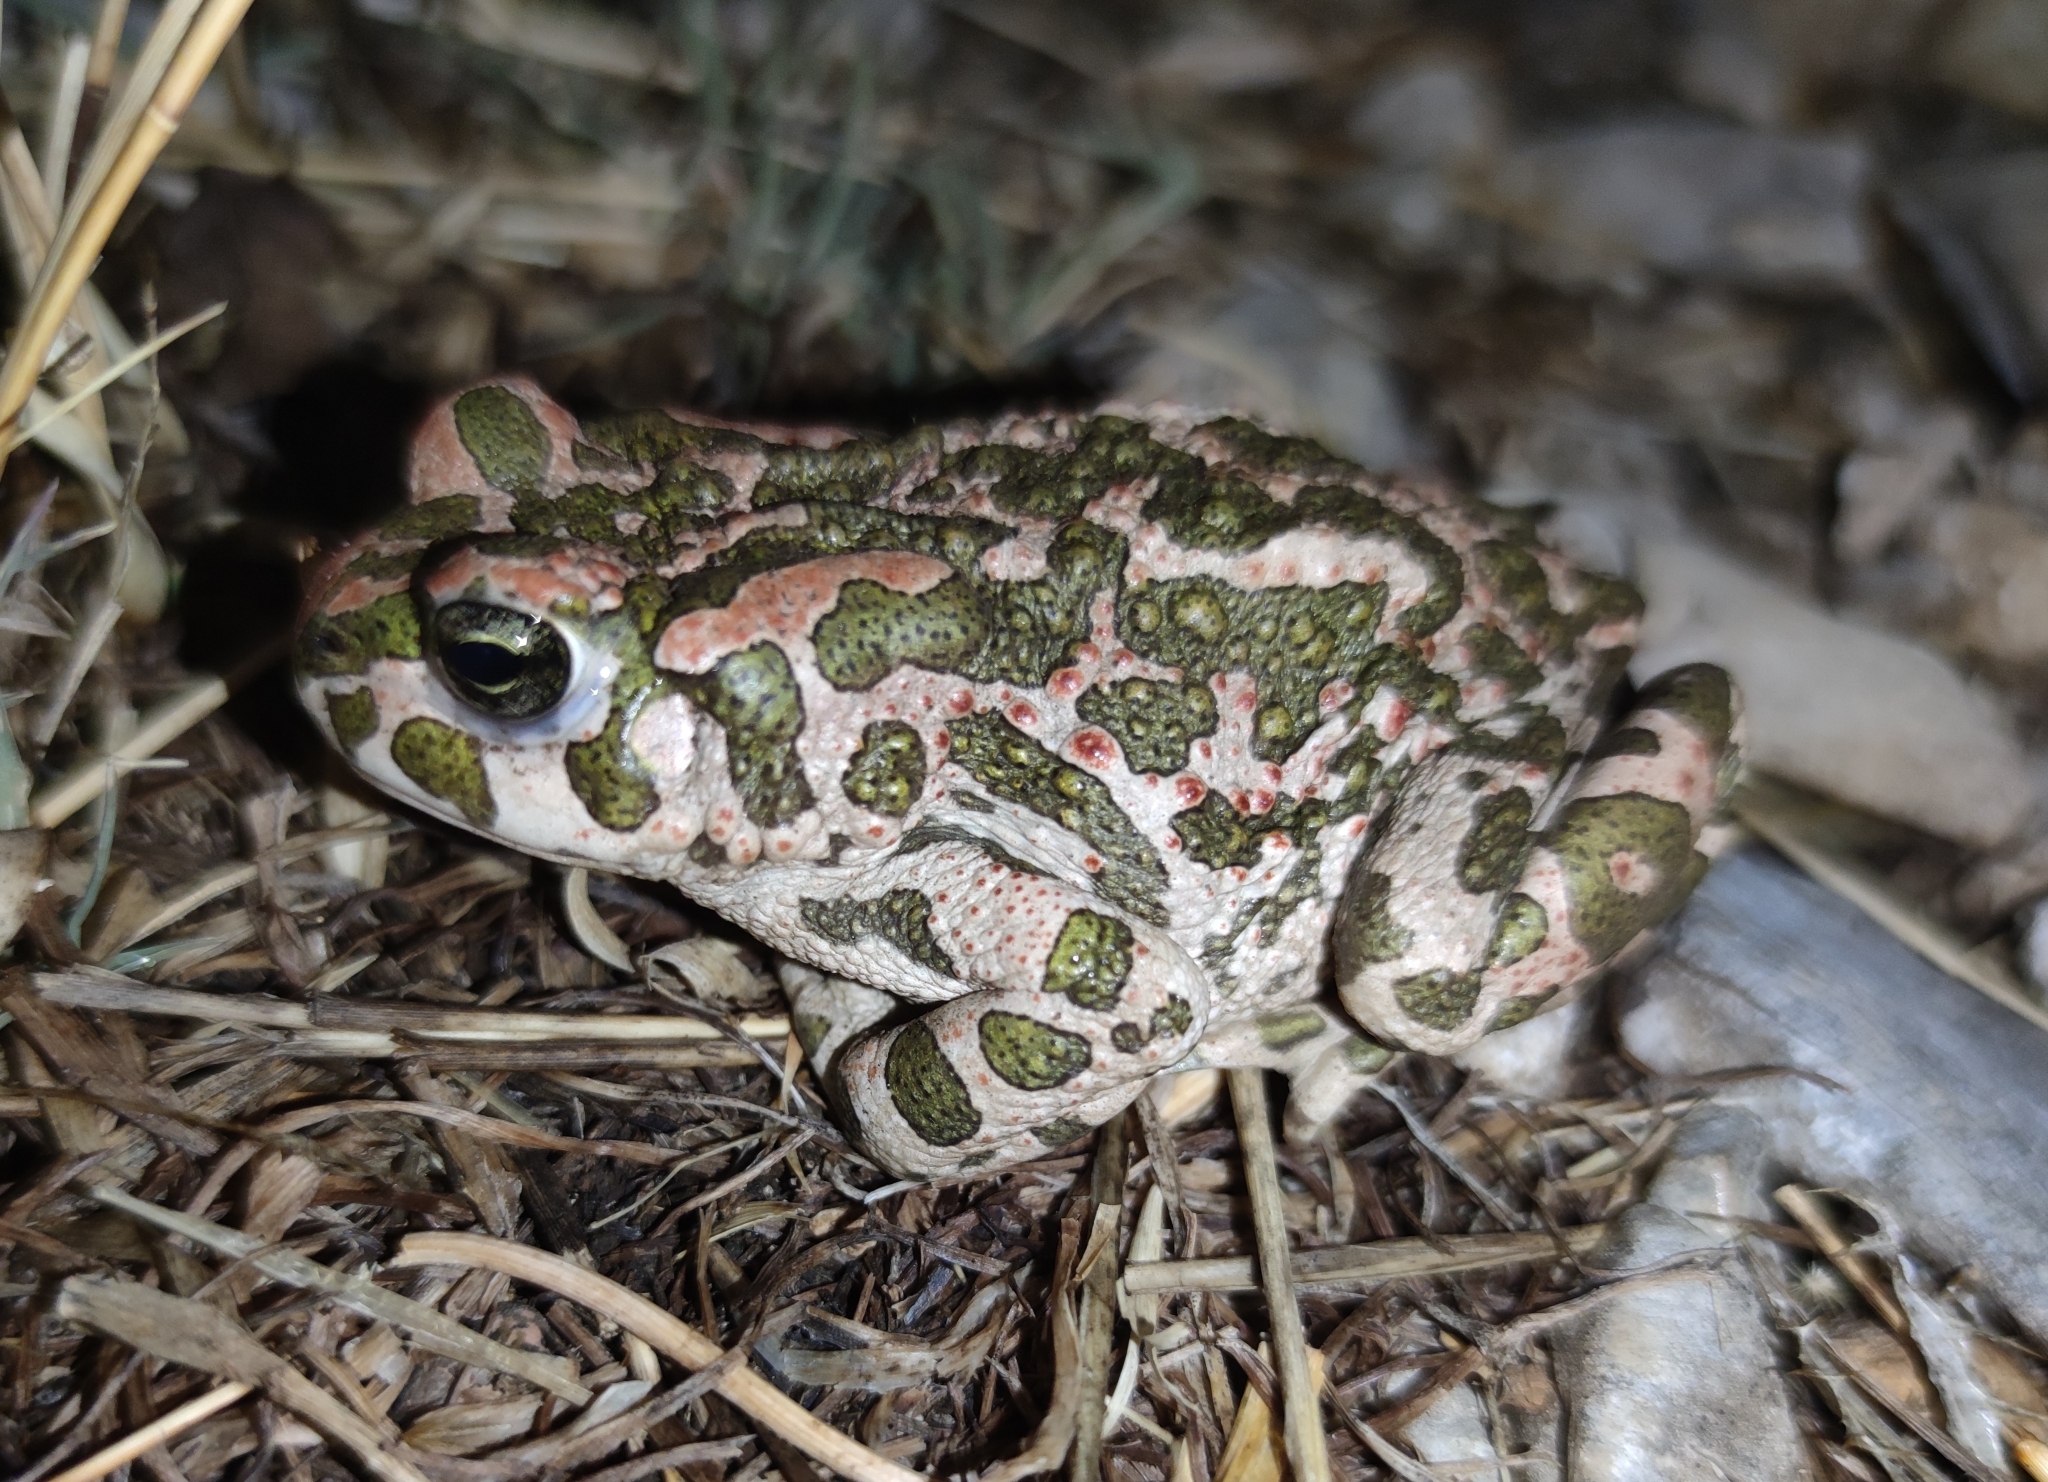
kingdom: Animalia
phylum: Chordata
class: Amphibia
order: Anura
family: Bufonidae
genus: Bufotes
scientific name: Bufotes viridis
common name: European green toad
